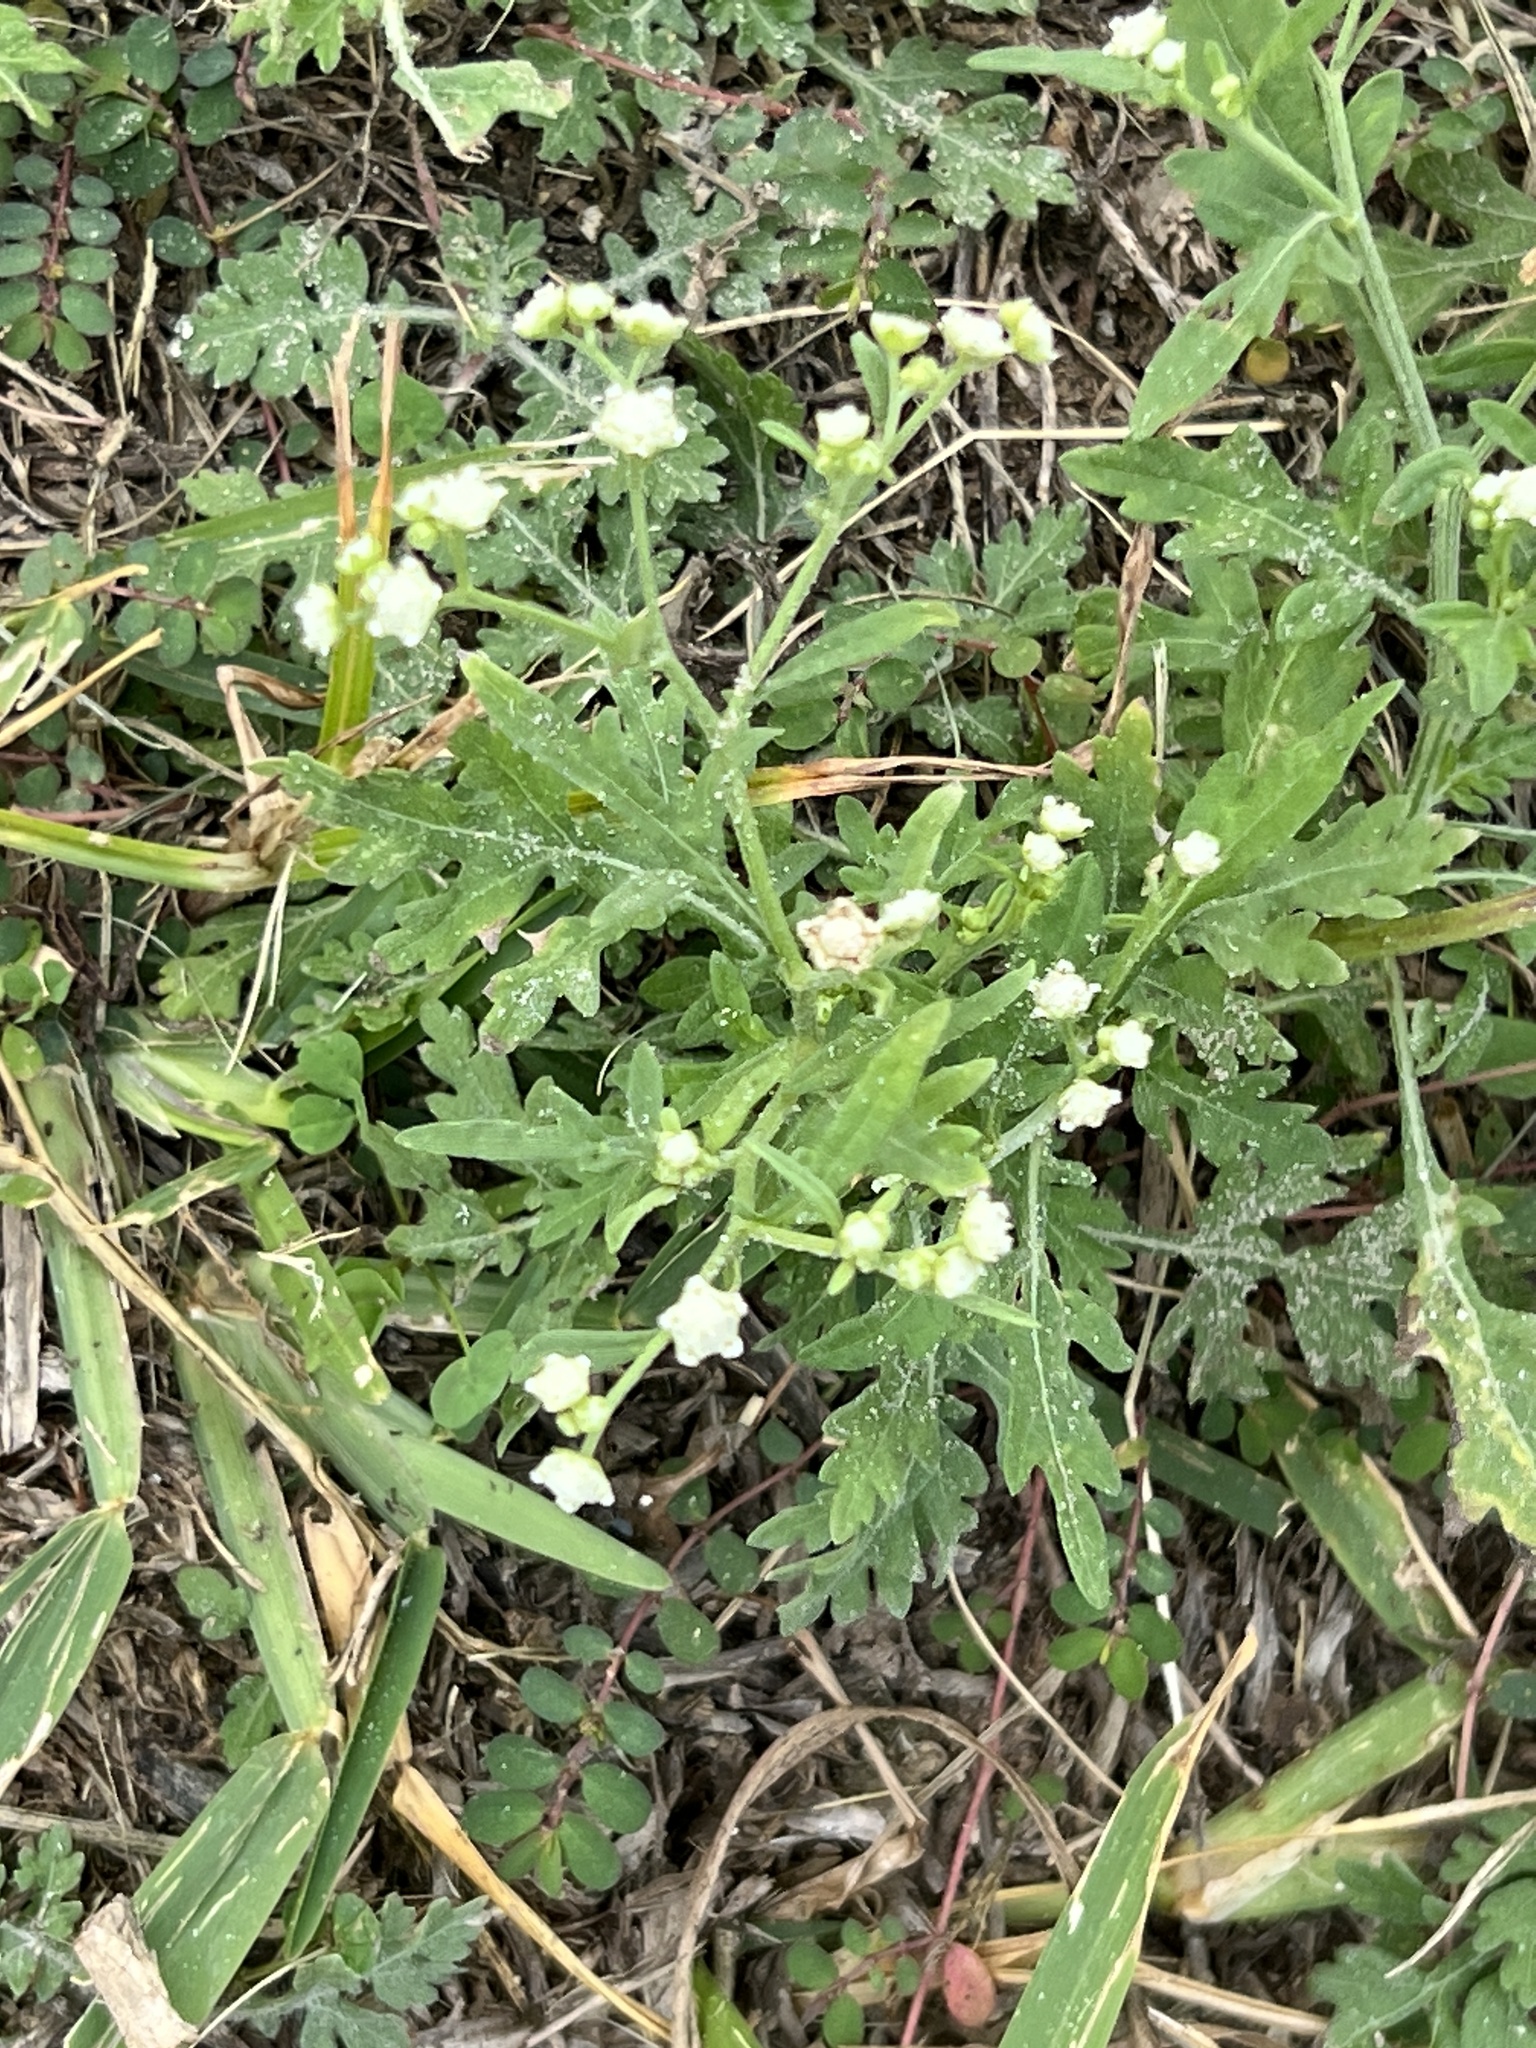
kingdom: Plantae
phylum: Tracheophyta
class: Magnoliopsida
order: Asterales
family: Asteraceae
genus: Parthenium
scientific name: Parthenium hysterophorus
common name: Santa maria feverfew
